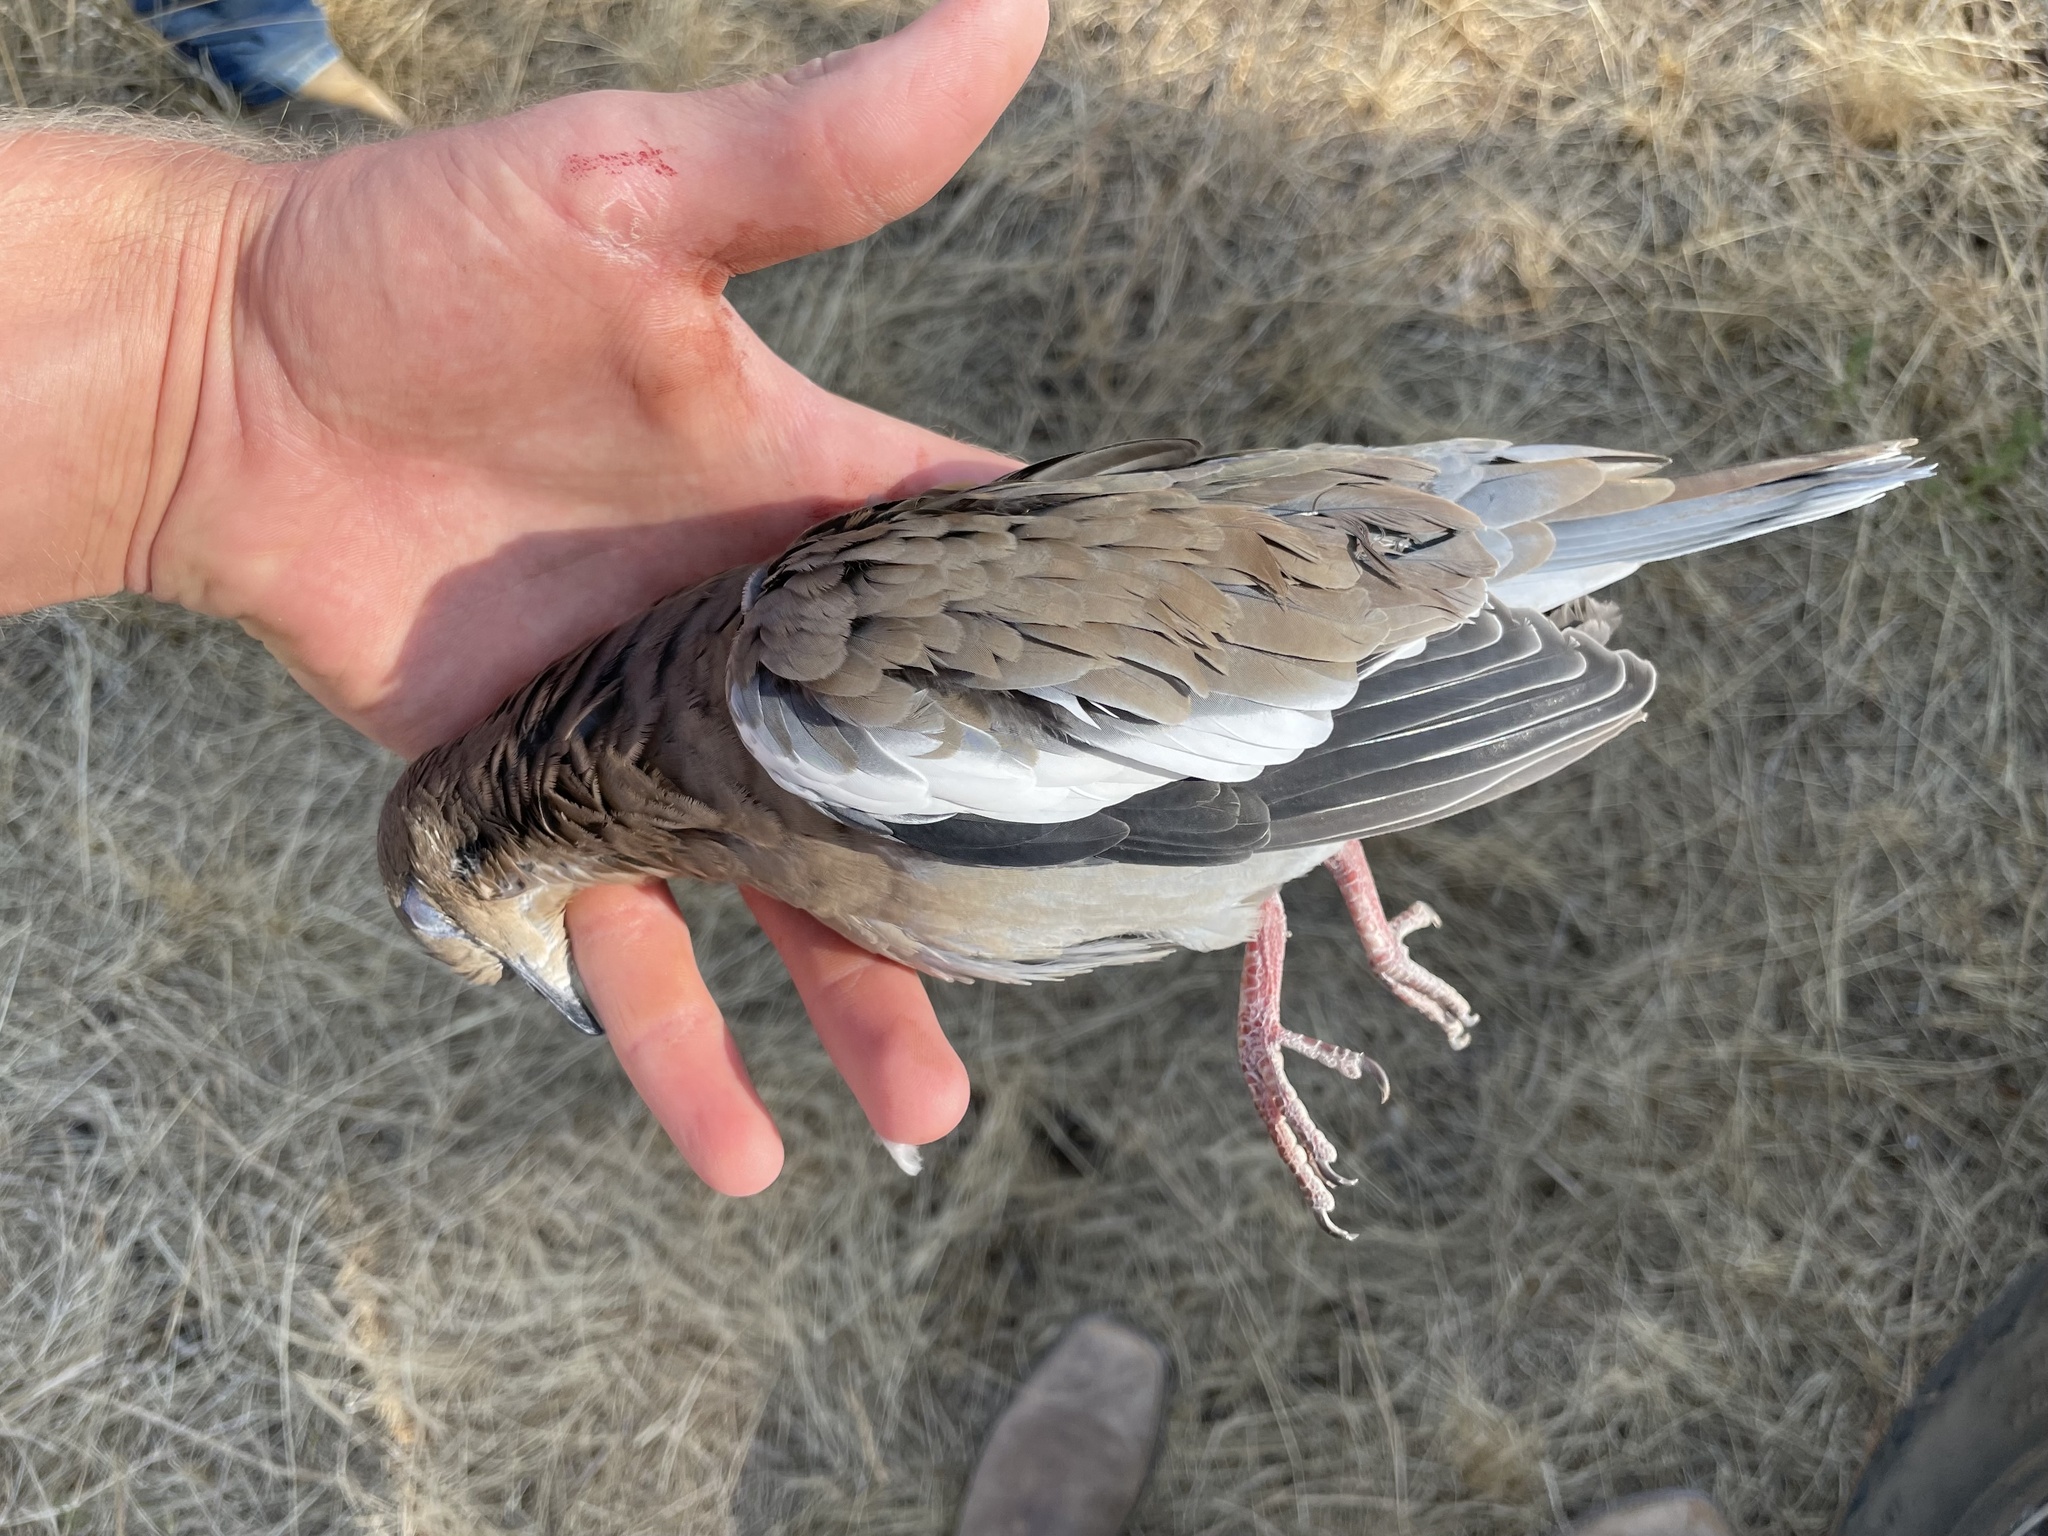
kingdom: Animalia
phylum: Chordata
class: Aves
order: Columbiformes
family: Columbidae
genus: Zenaida
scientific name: Zenaida asiatica
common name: White-winged dove
